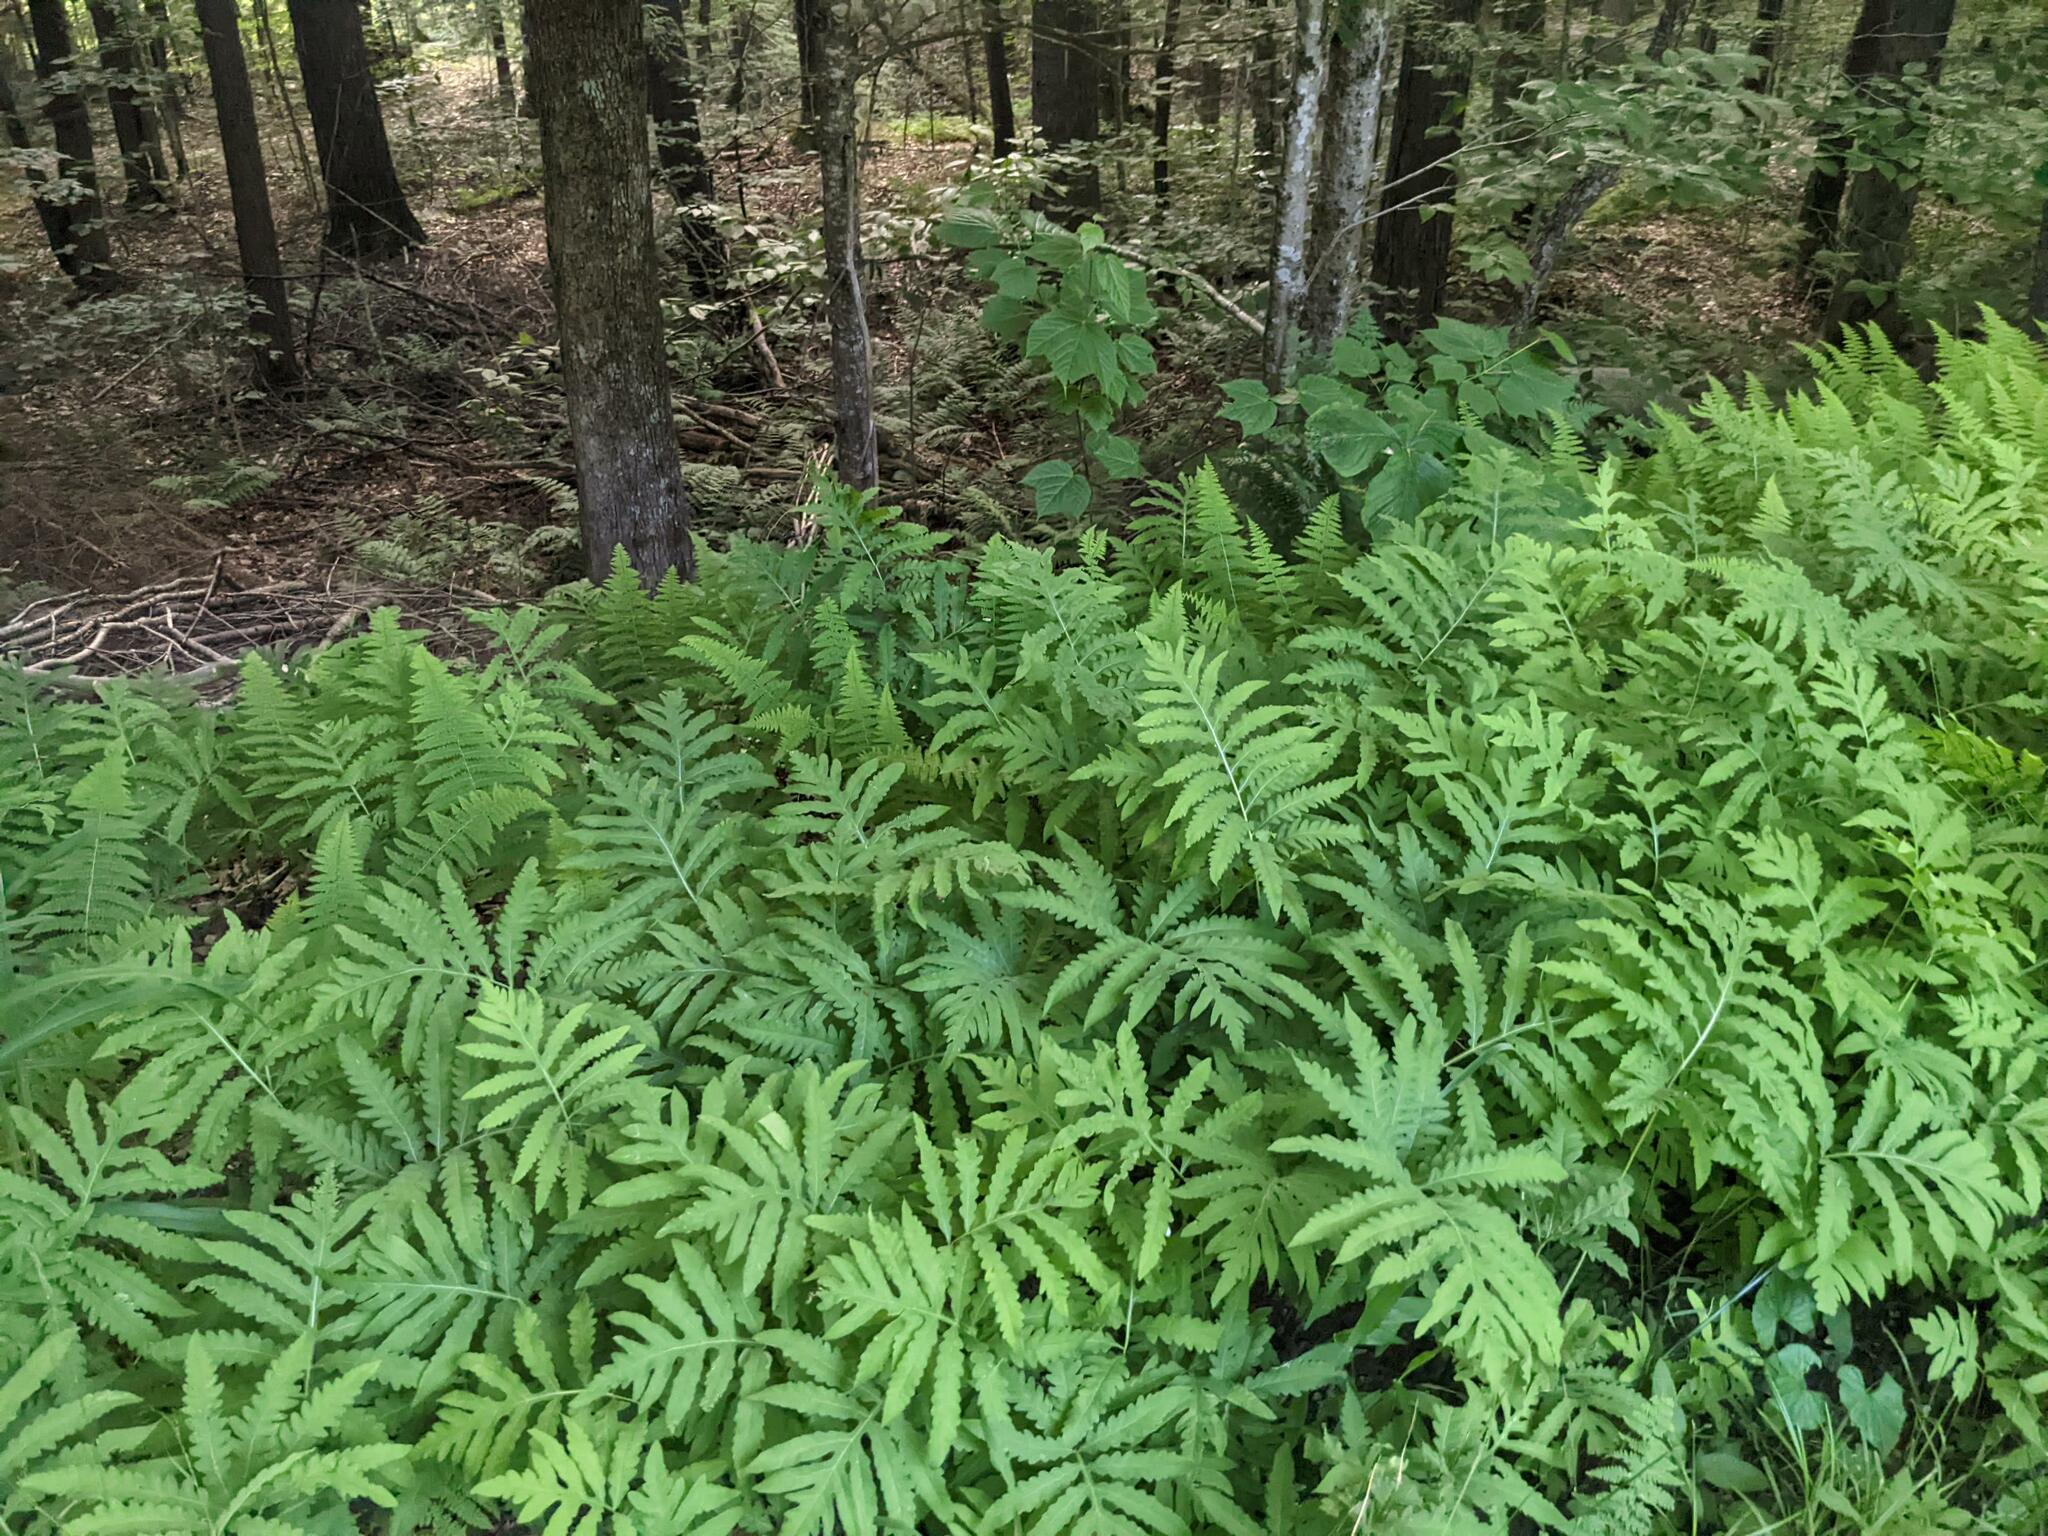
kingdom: Plantae
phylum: Tracheophyta
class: Polypodiopsida
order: Polypodiales
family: Onocleaceae
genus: Onoclea
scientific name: Onoclea sensibilis
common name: Sensitive fern
